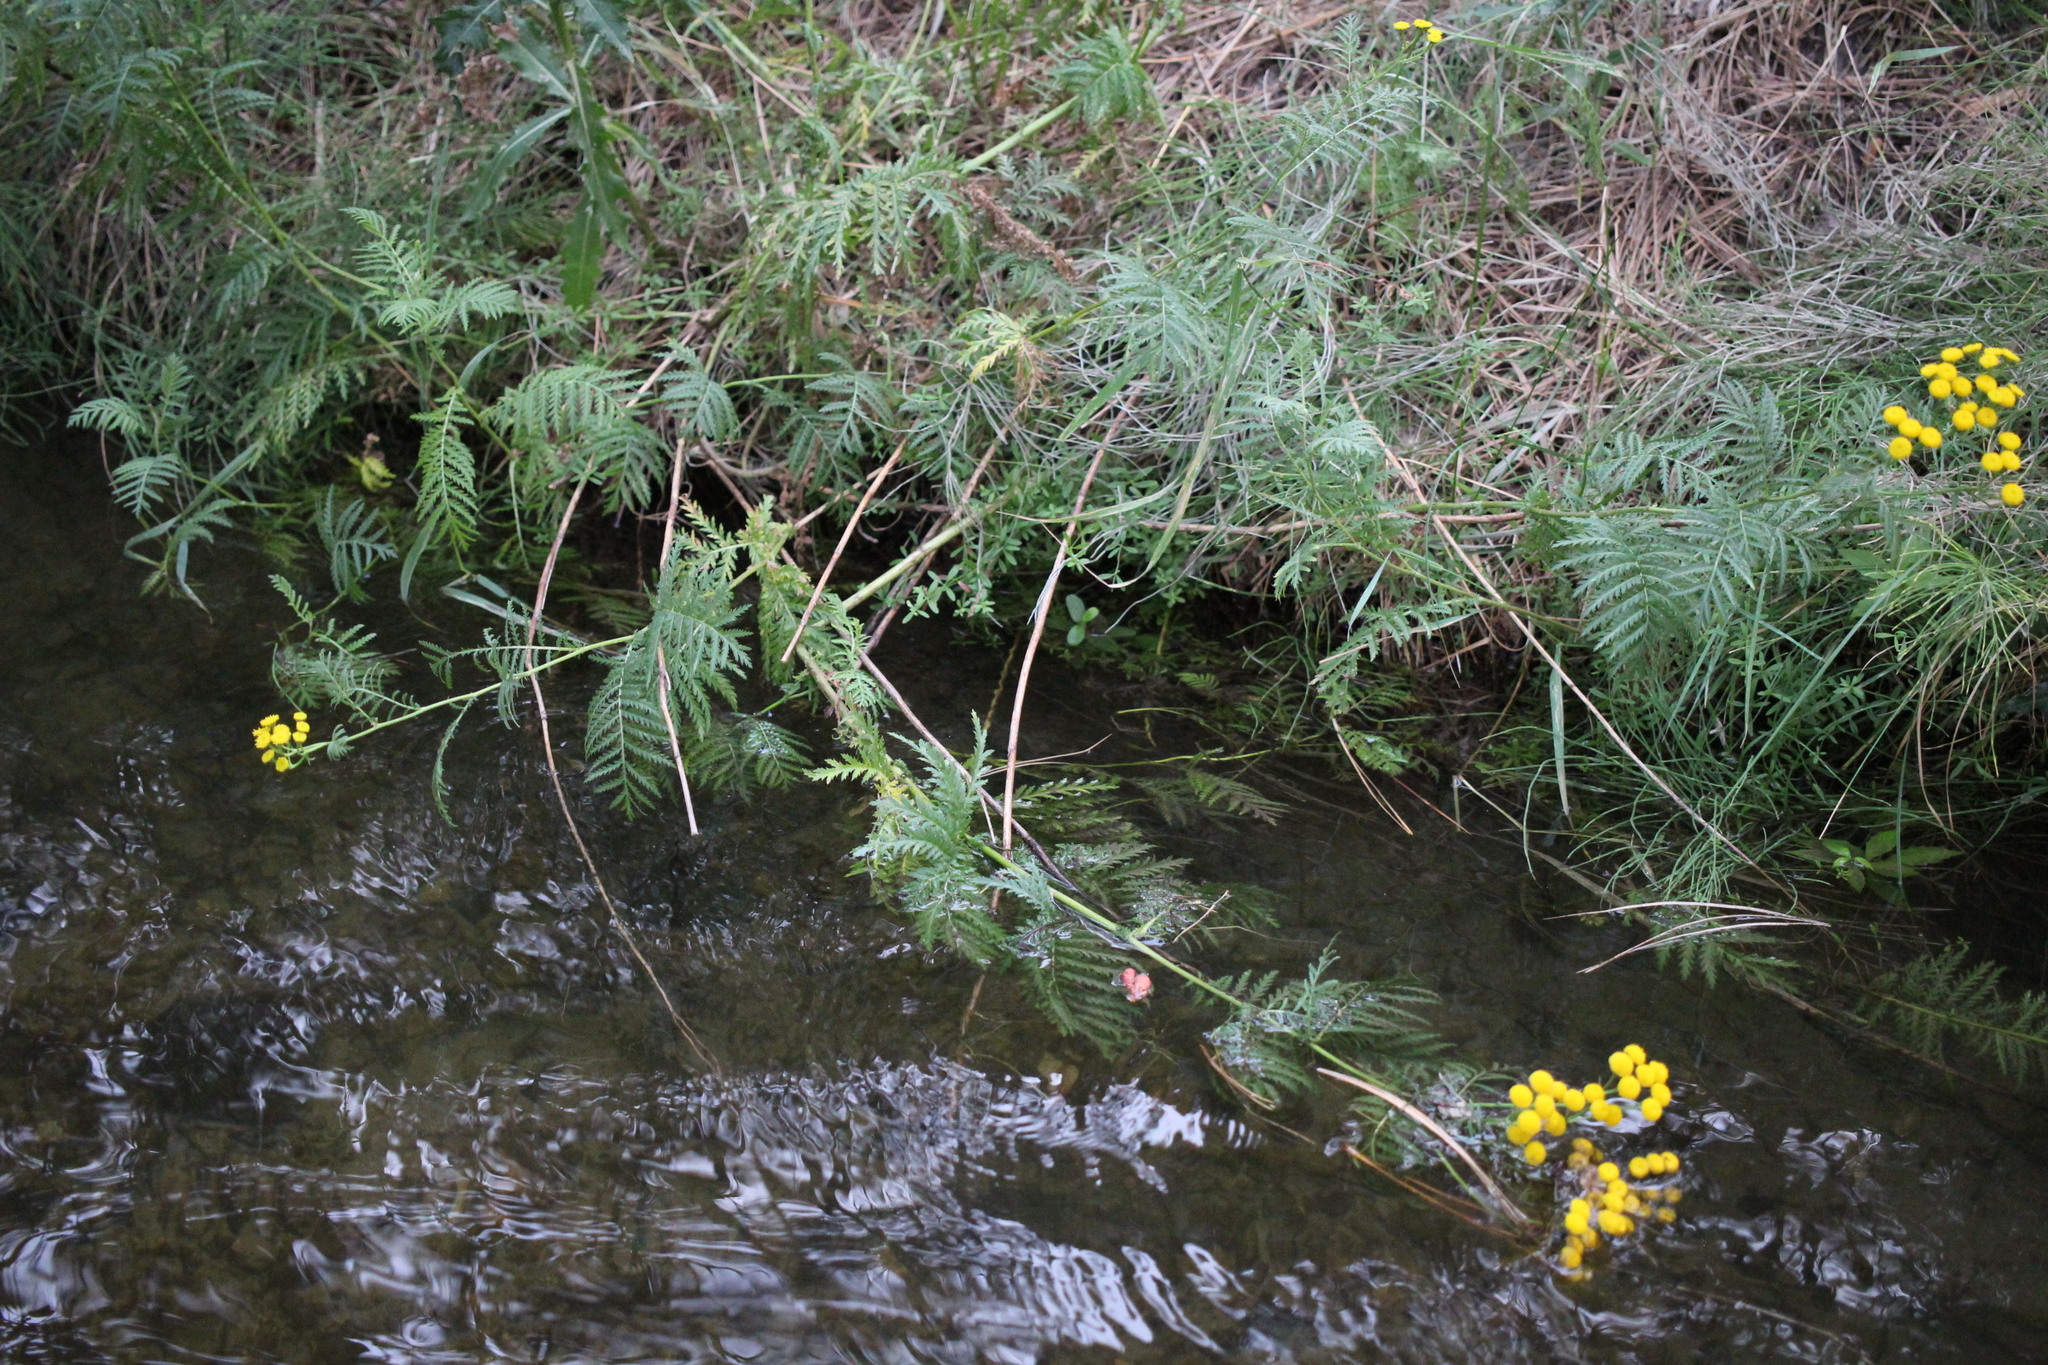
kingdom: Plantae
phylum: Tracheophyta
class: Magnoliopsida
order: Asterales
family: Asteraceae
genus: Tanacetum
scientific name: Tanacetum vulgare
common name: Common tansy
